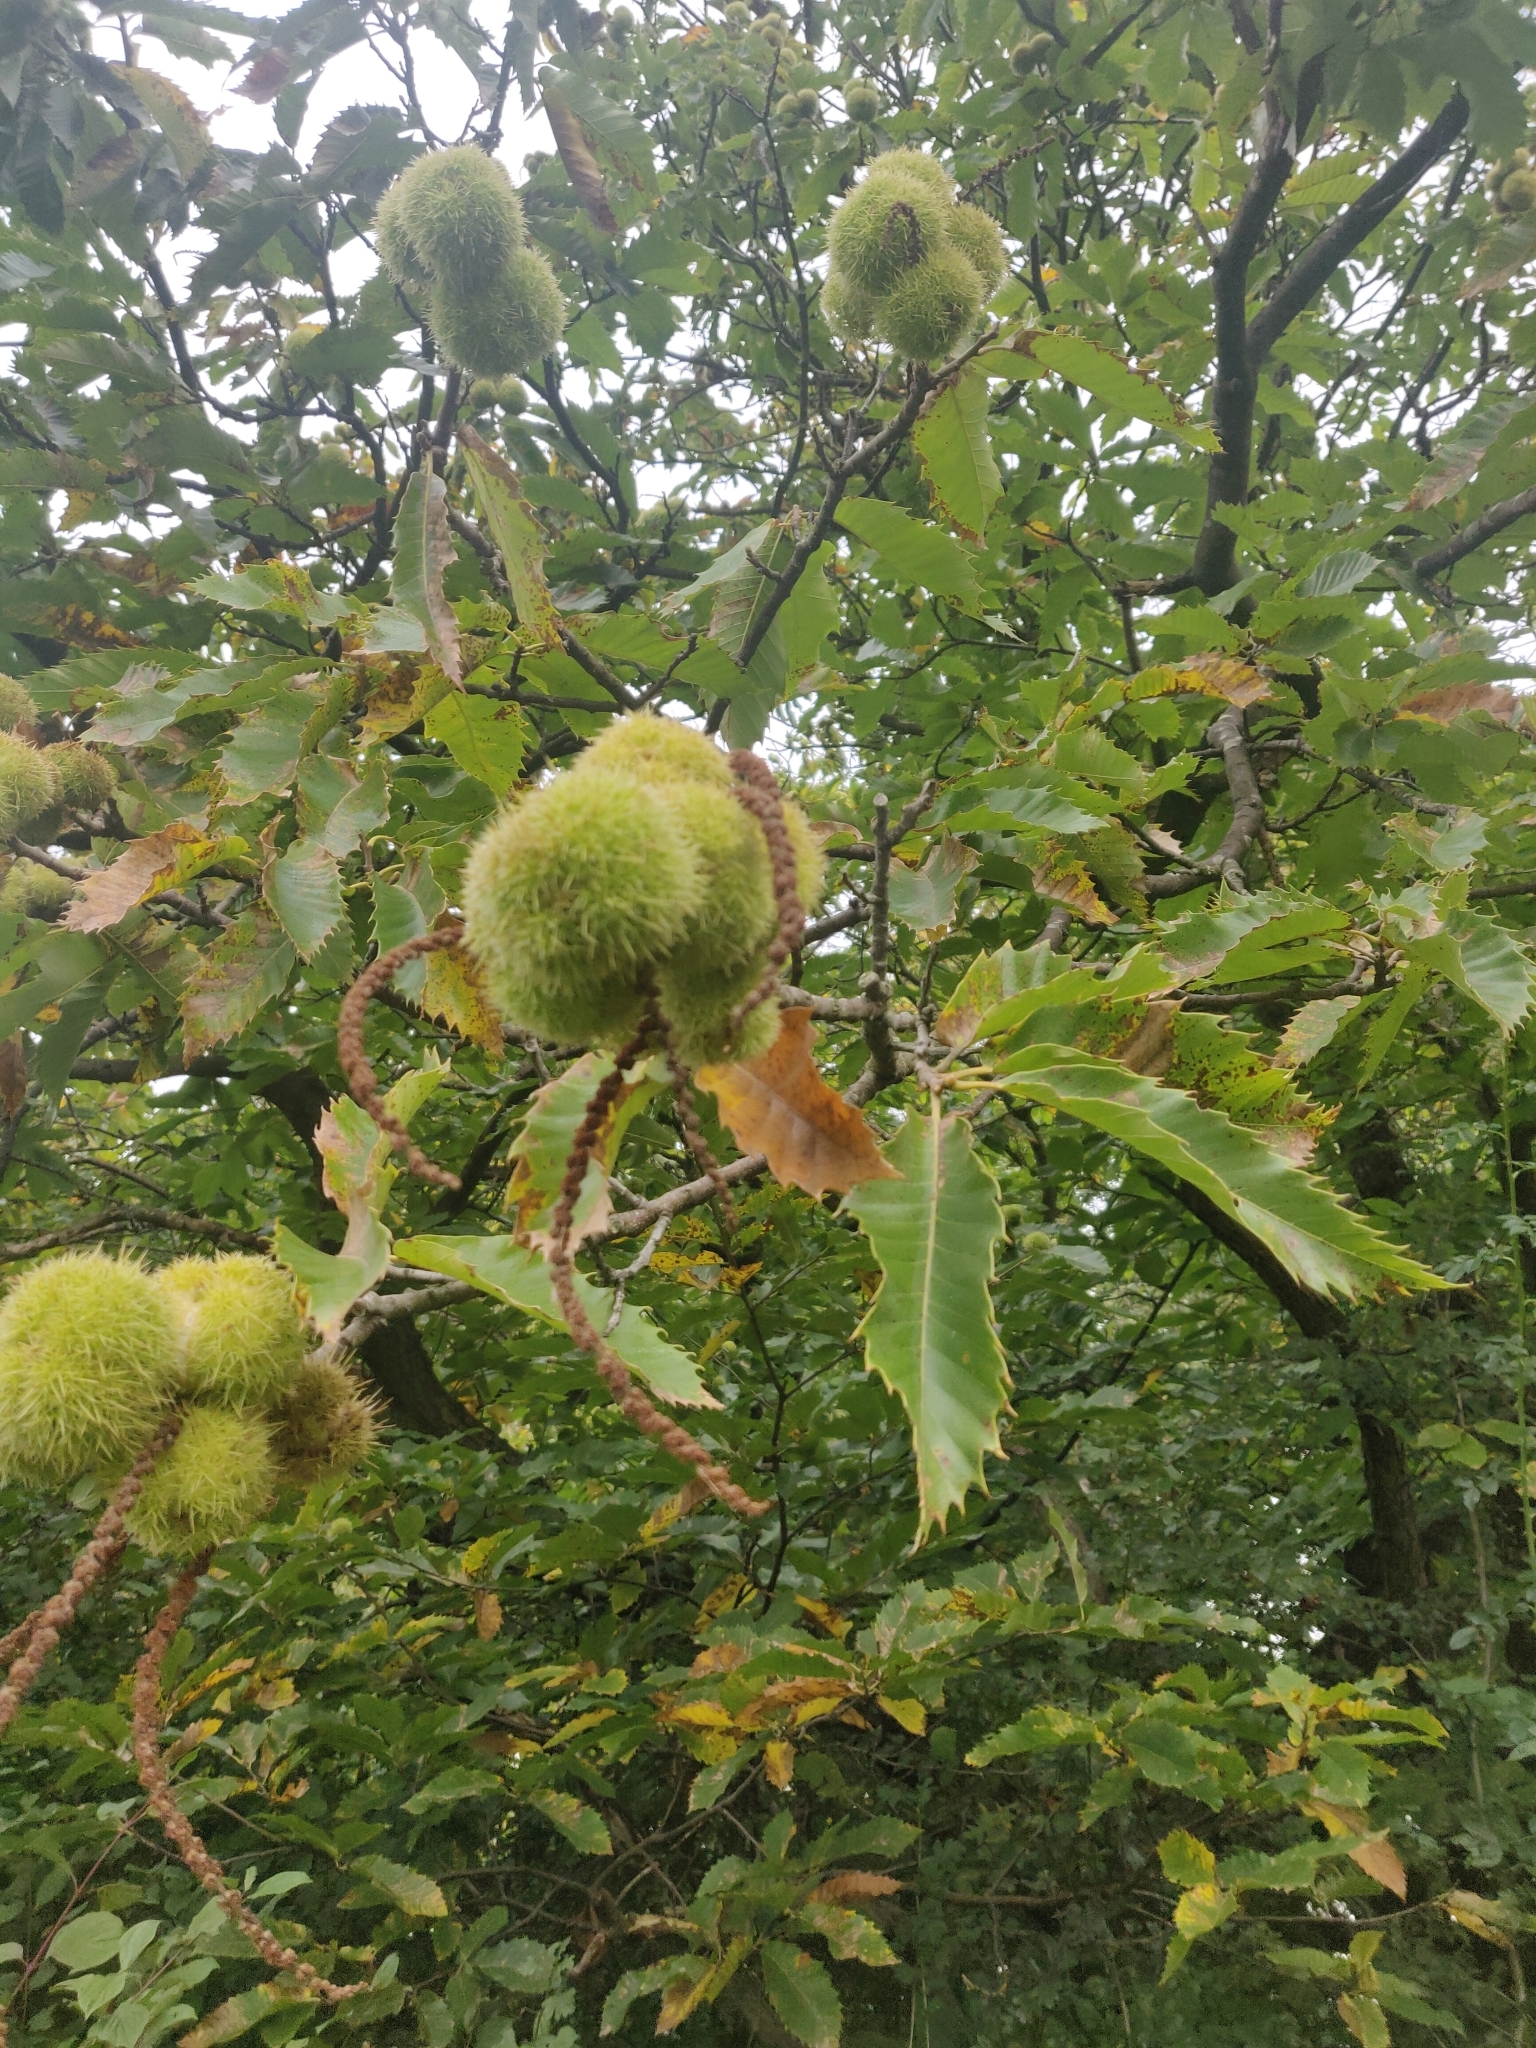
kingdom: Plantae
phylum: Tracheophyta
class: Magnoliopsida
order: Fagales
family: Fagaceae
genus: Castanea
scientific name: Castanea sativa
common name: Sweet chestnut
